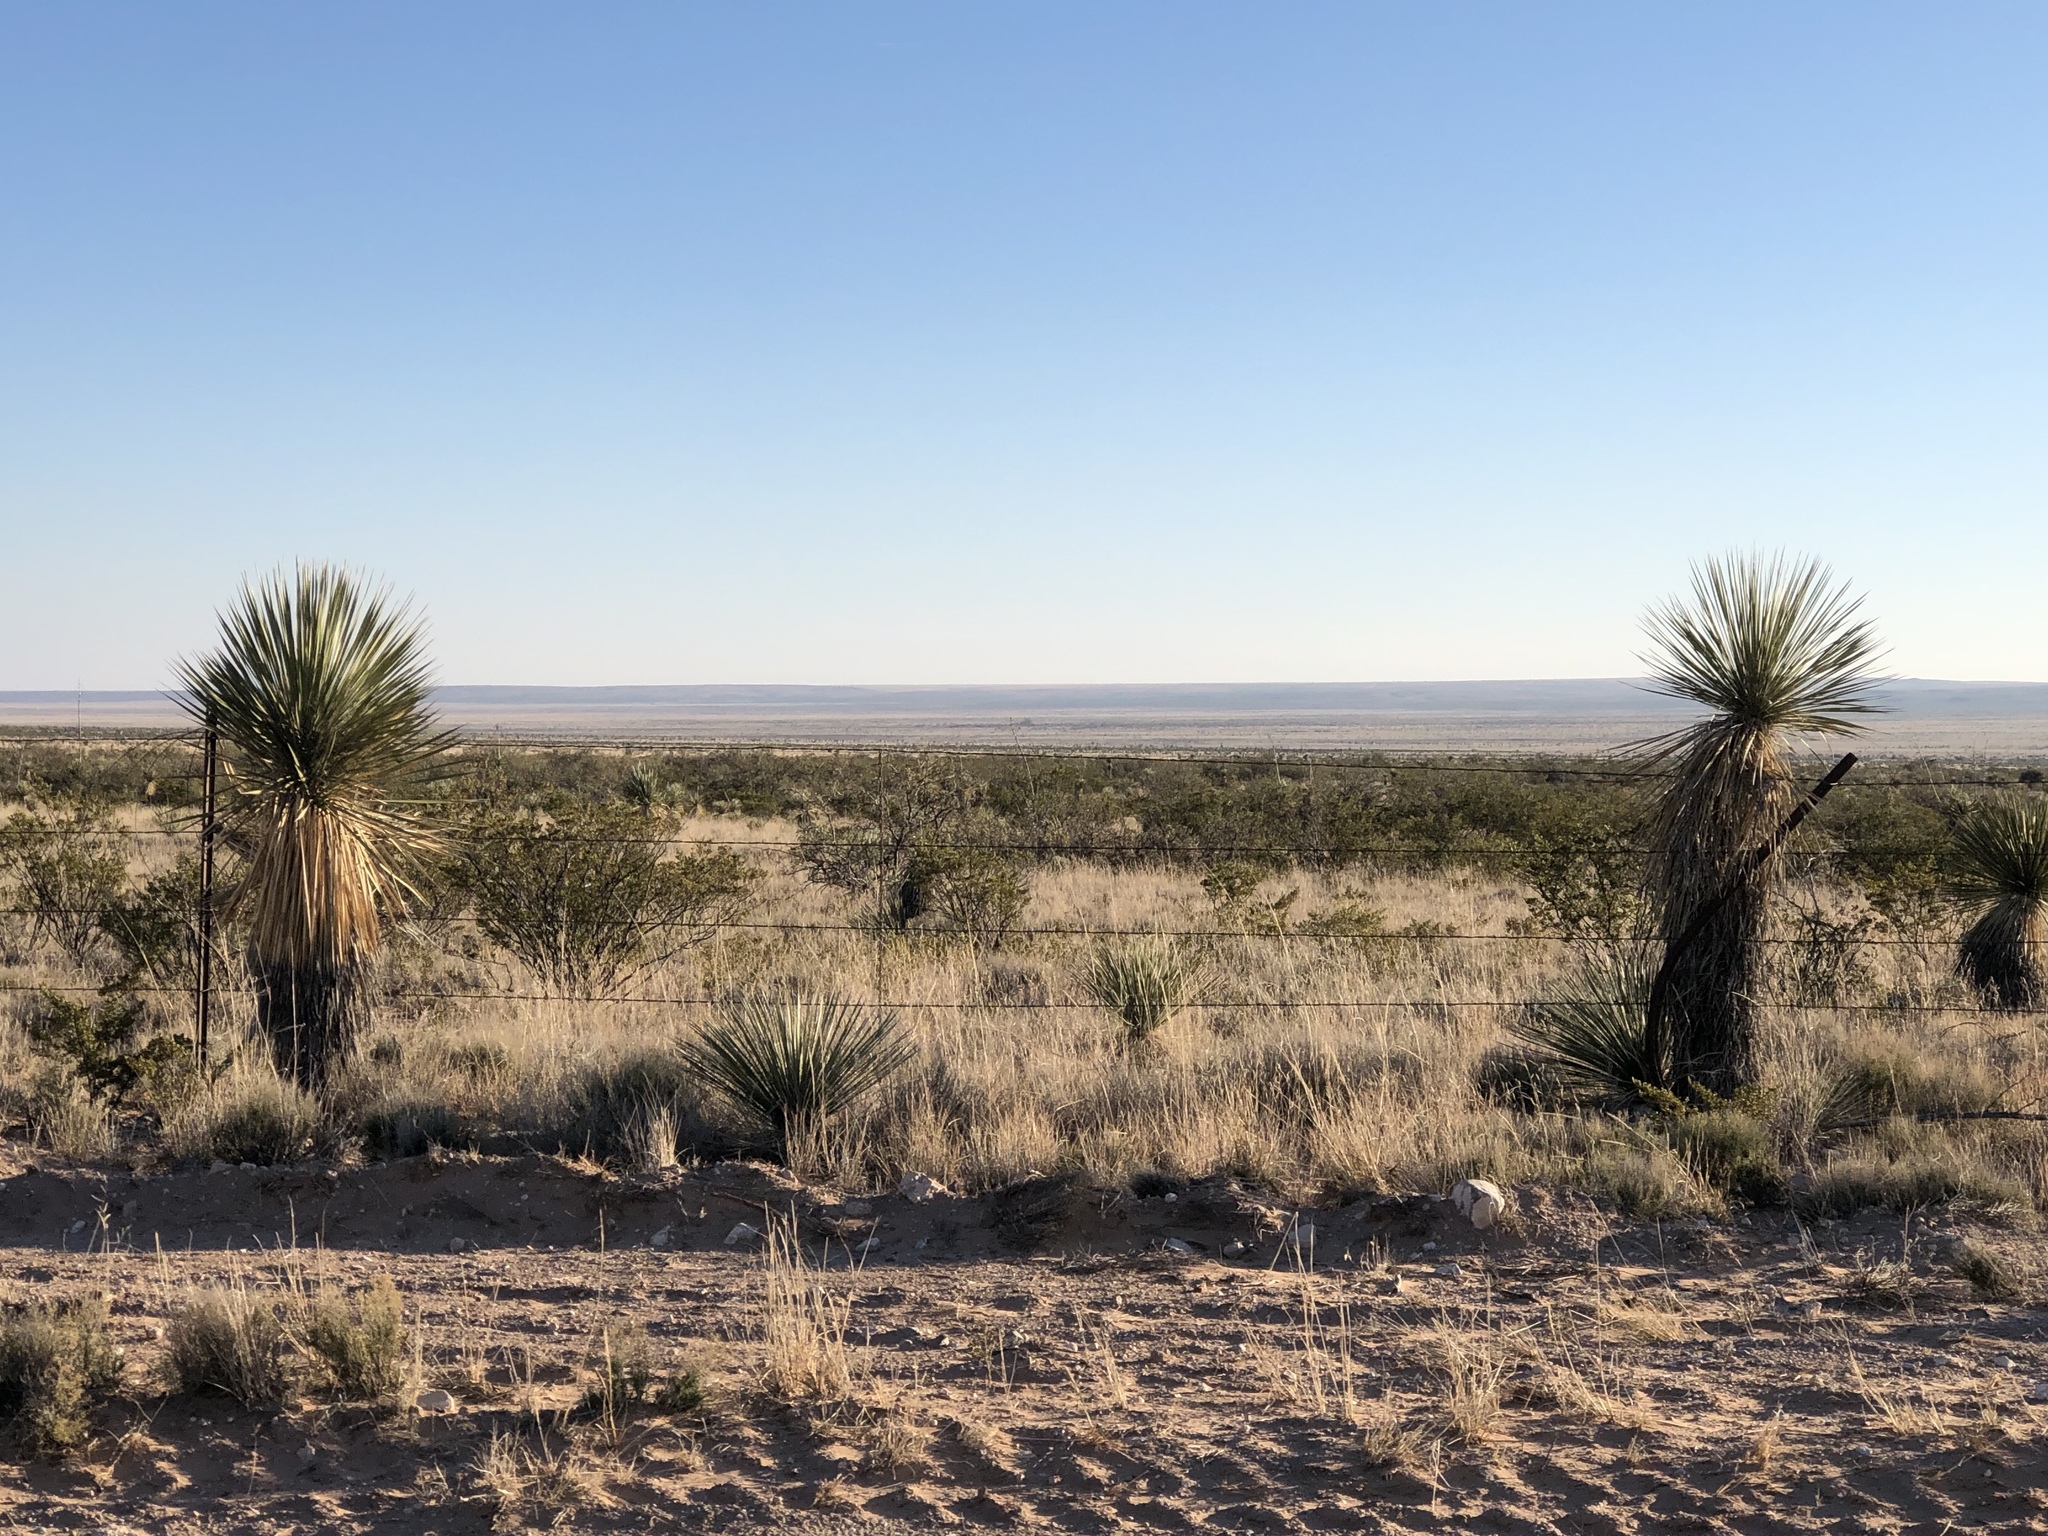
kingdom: Plantae
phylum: Tracheophyta
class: Liliopsida
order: Asparagales
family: Asparagaceae
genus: Yucca
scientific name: Yucca elata
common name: Palmella
